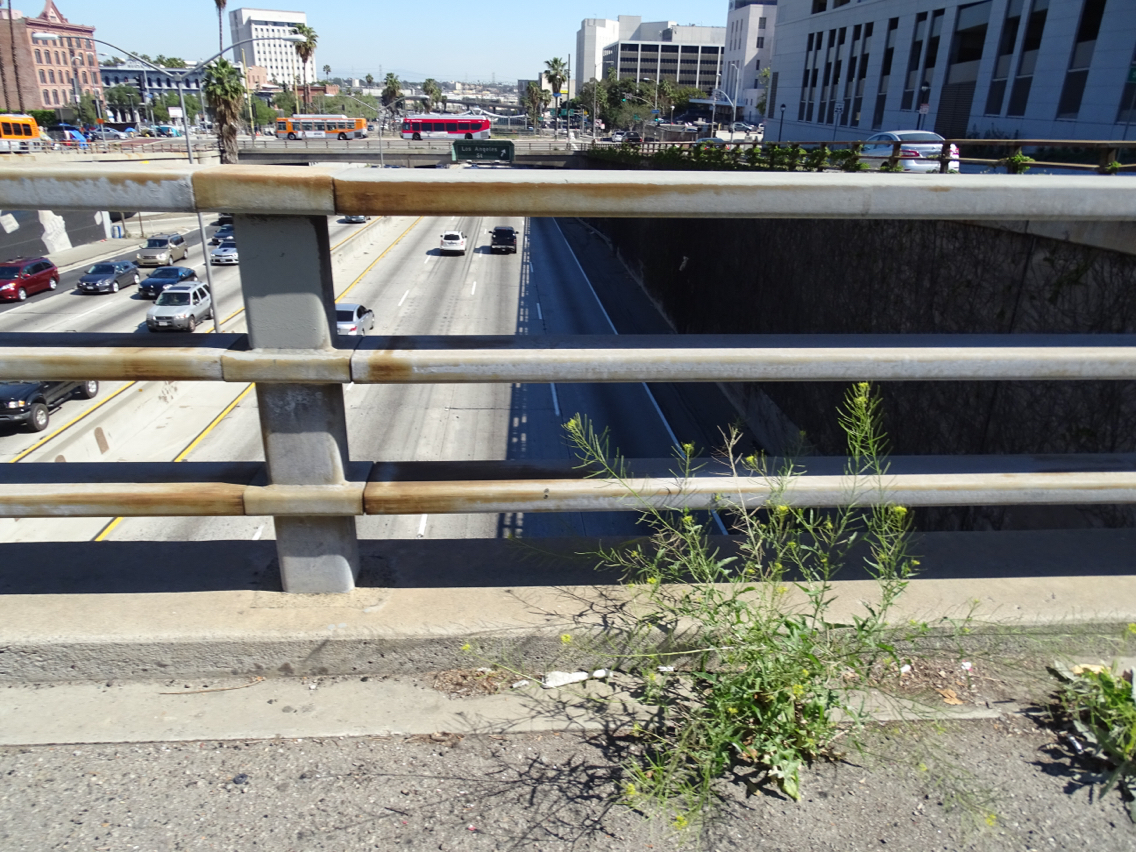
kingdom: Plantae
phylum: Tracheophyta
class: Magnoliopsida
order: Brassicales
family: Brassicaceae
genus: Sisymbrium
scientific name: Sisymbrium irio
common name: London rocket
